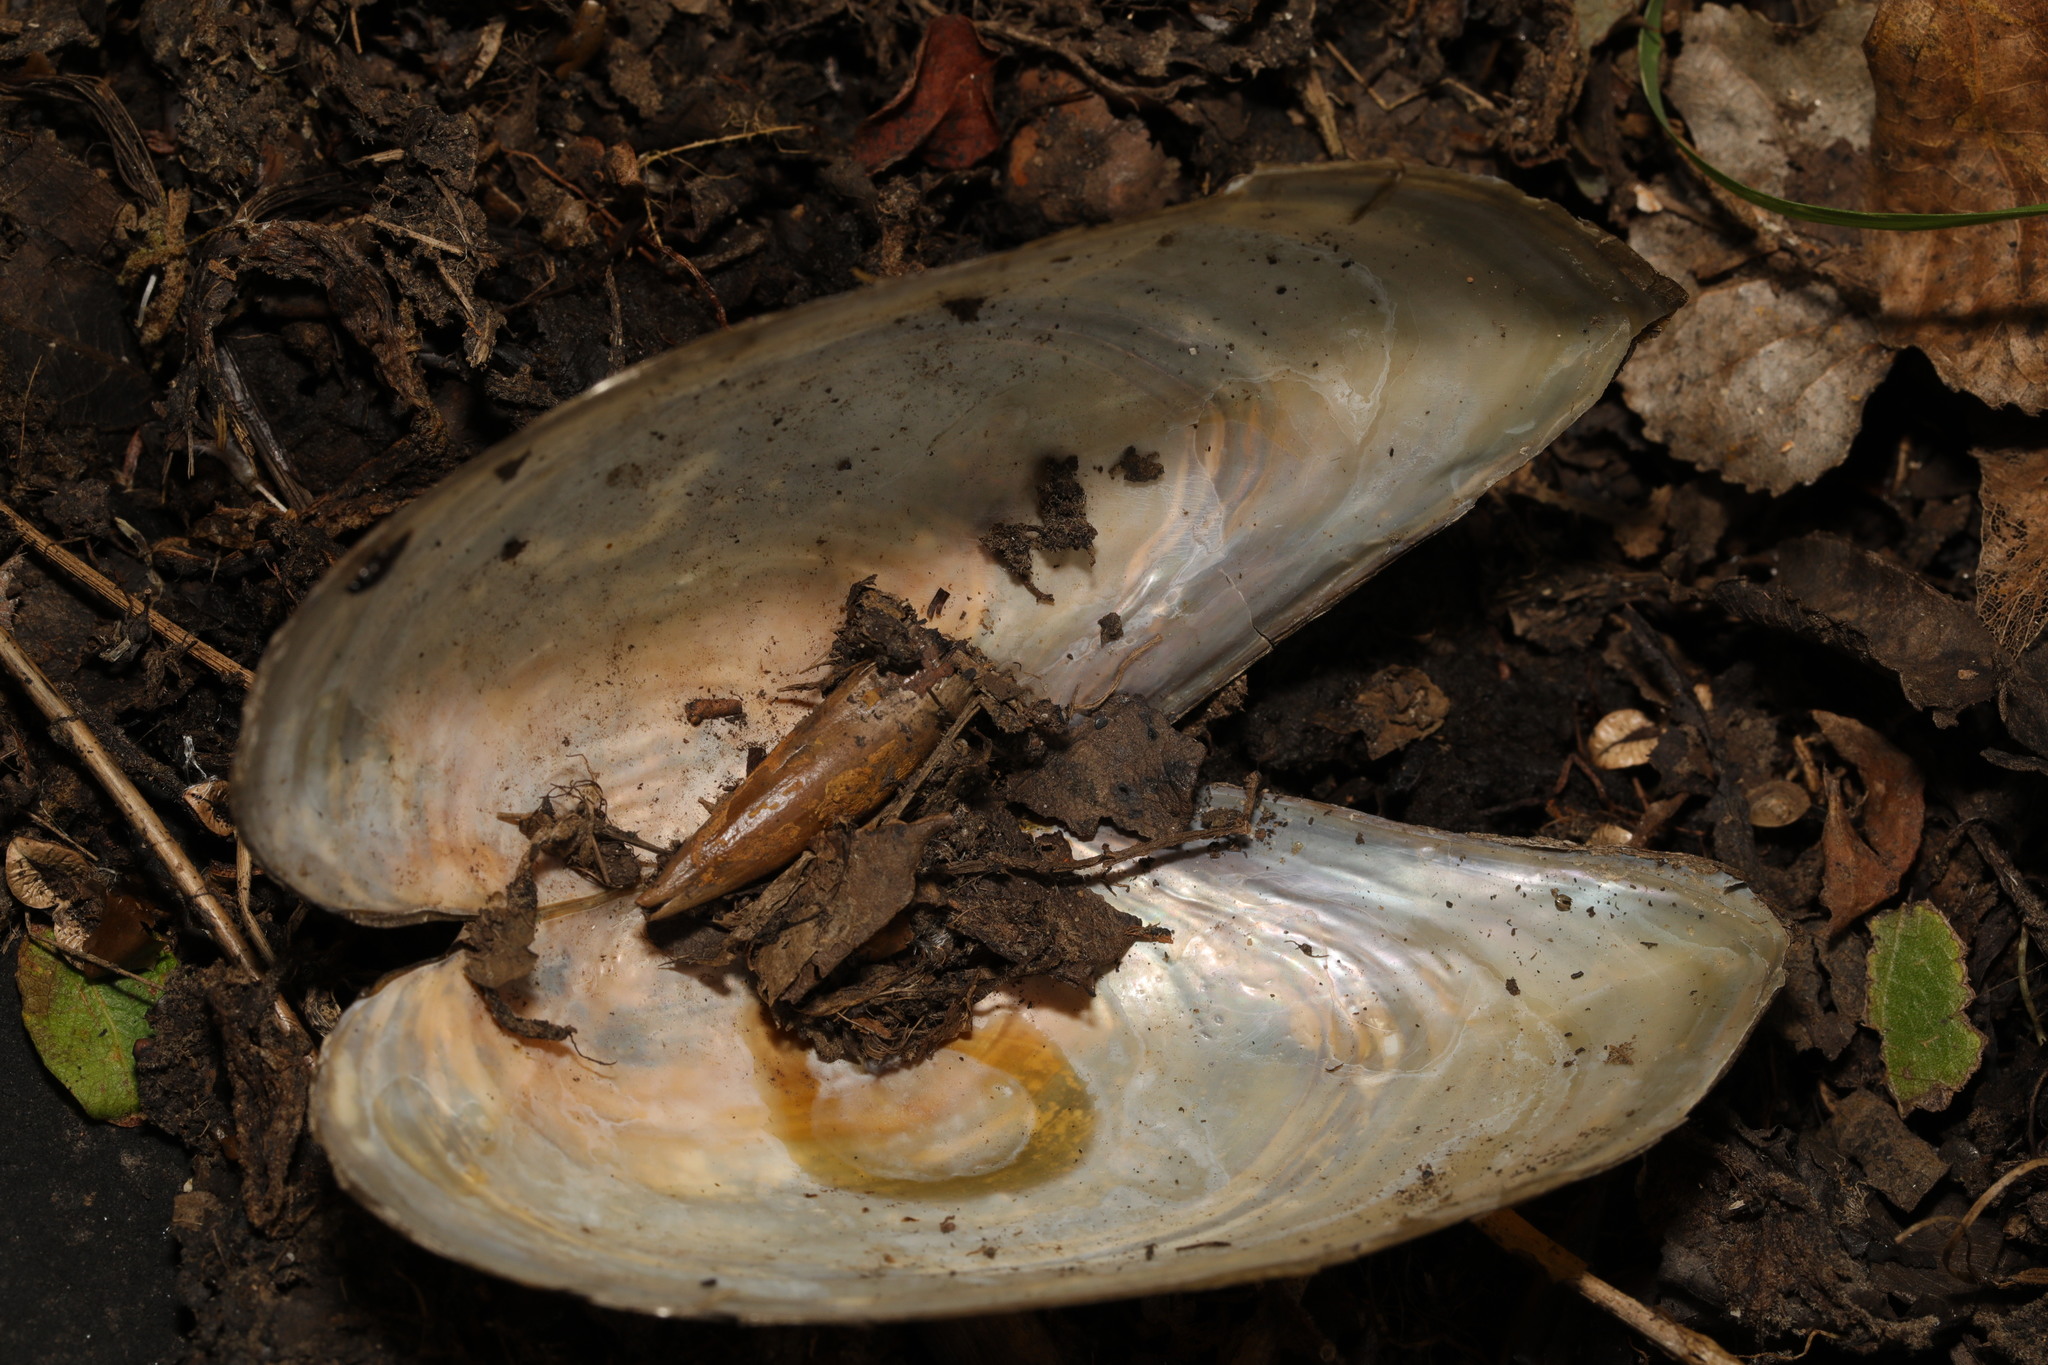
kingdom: Animalia
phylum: Mollusca
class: Bivalvia
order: Unionida
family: Unionidae
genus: Anodonta
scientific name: Anodonta cygnea
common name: Swan mussel
